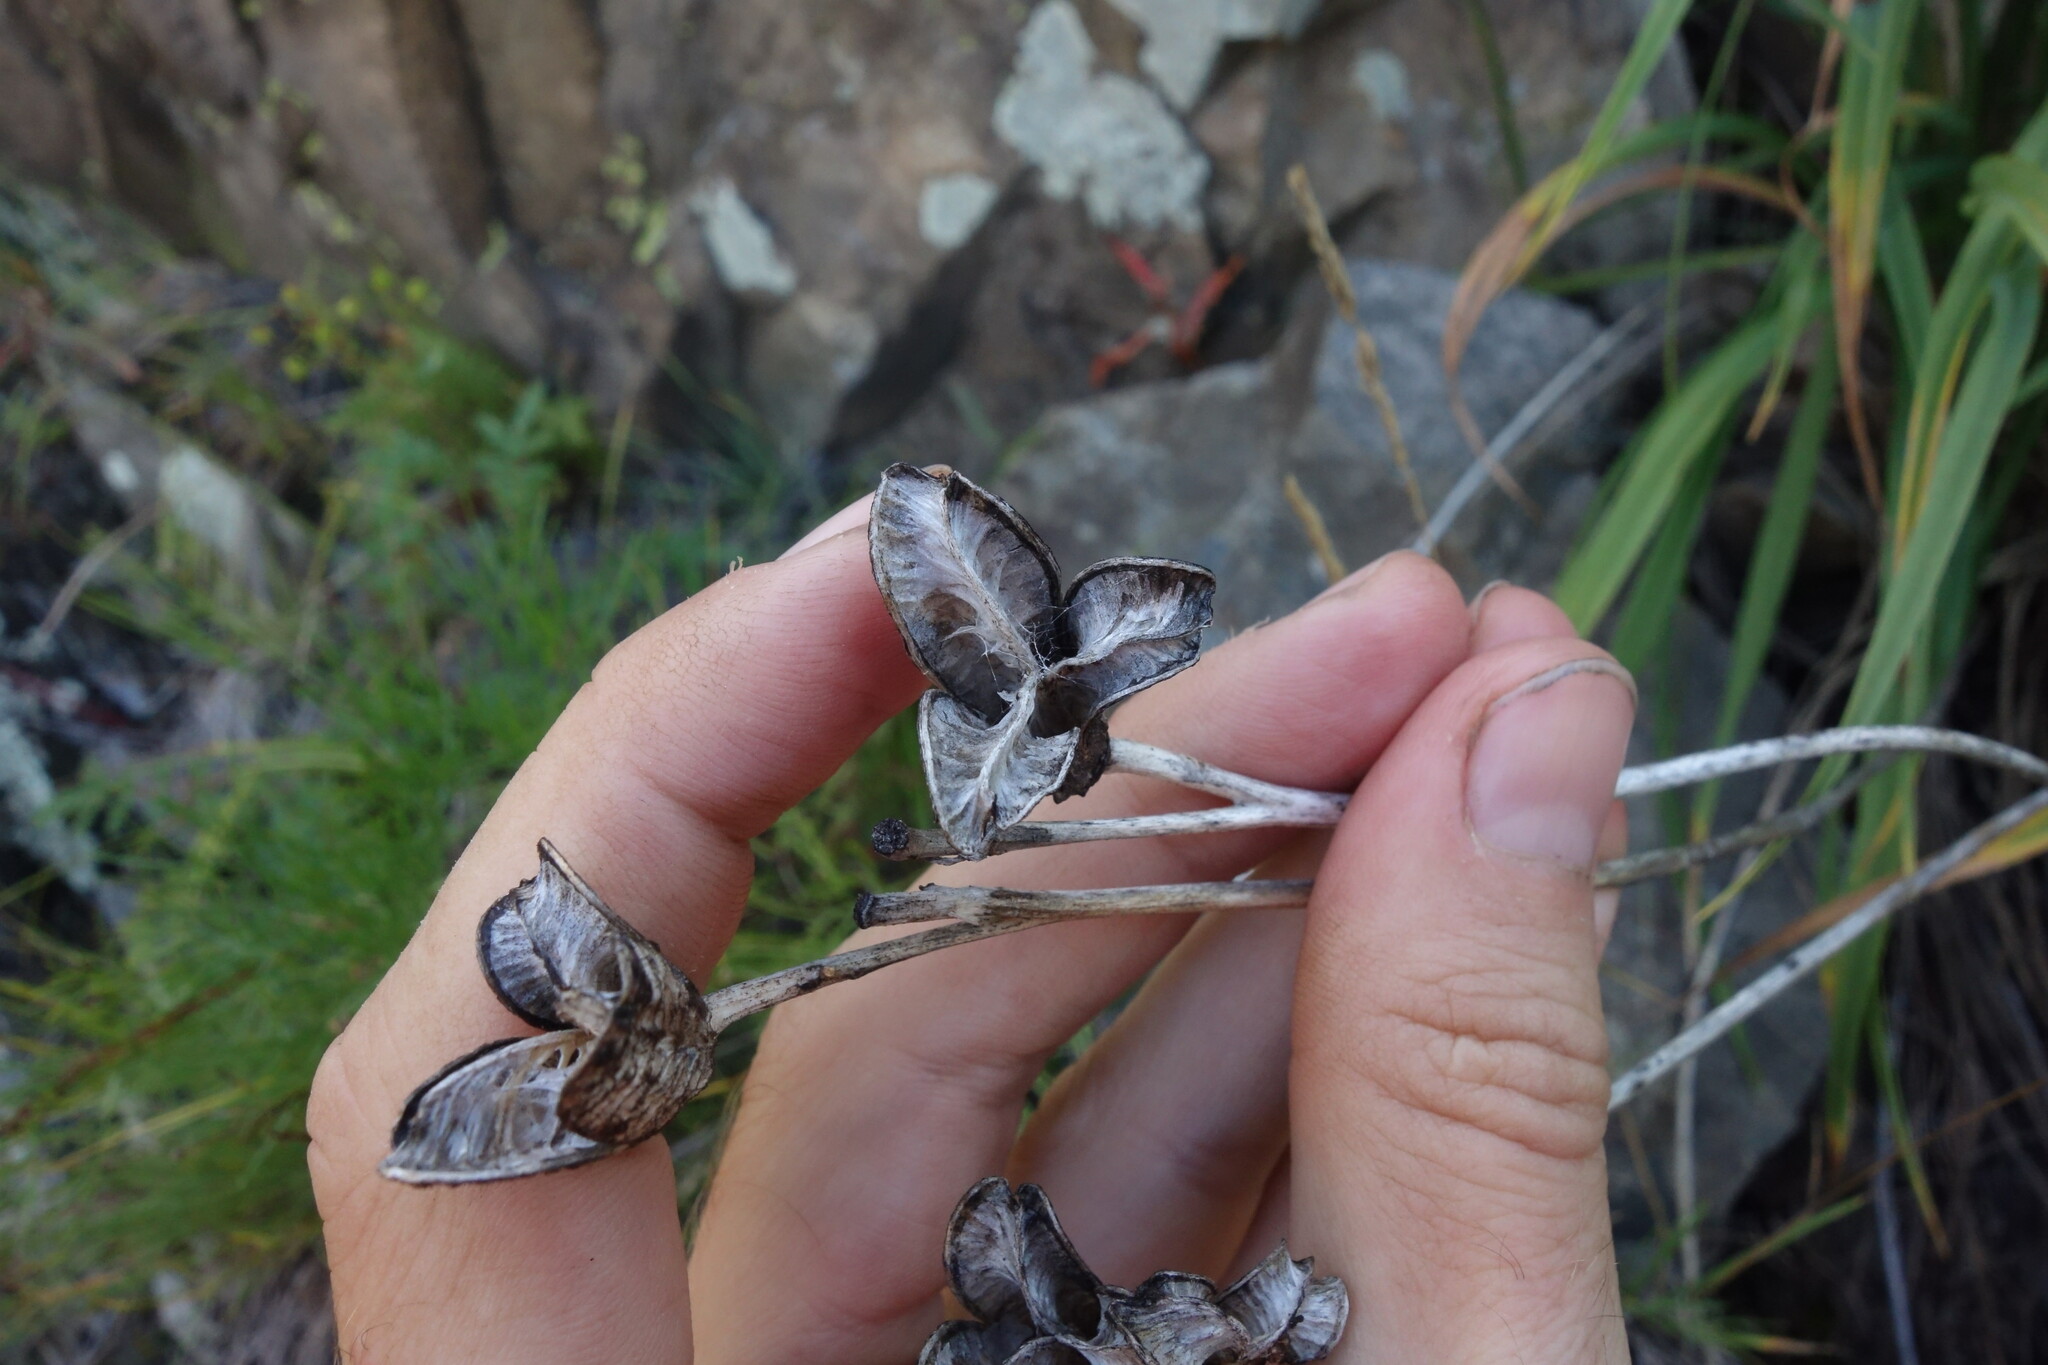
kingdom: Plantae
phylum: Tracheophyta
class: Liliopsida
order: Asparagales
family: Asphodelaceae
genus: Hemerocallis
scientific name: Hemerocallis minor
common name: Small daylily
